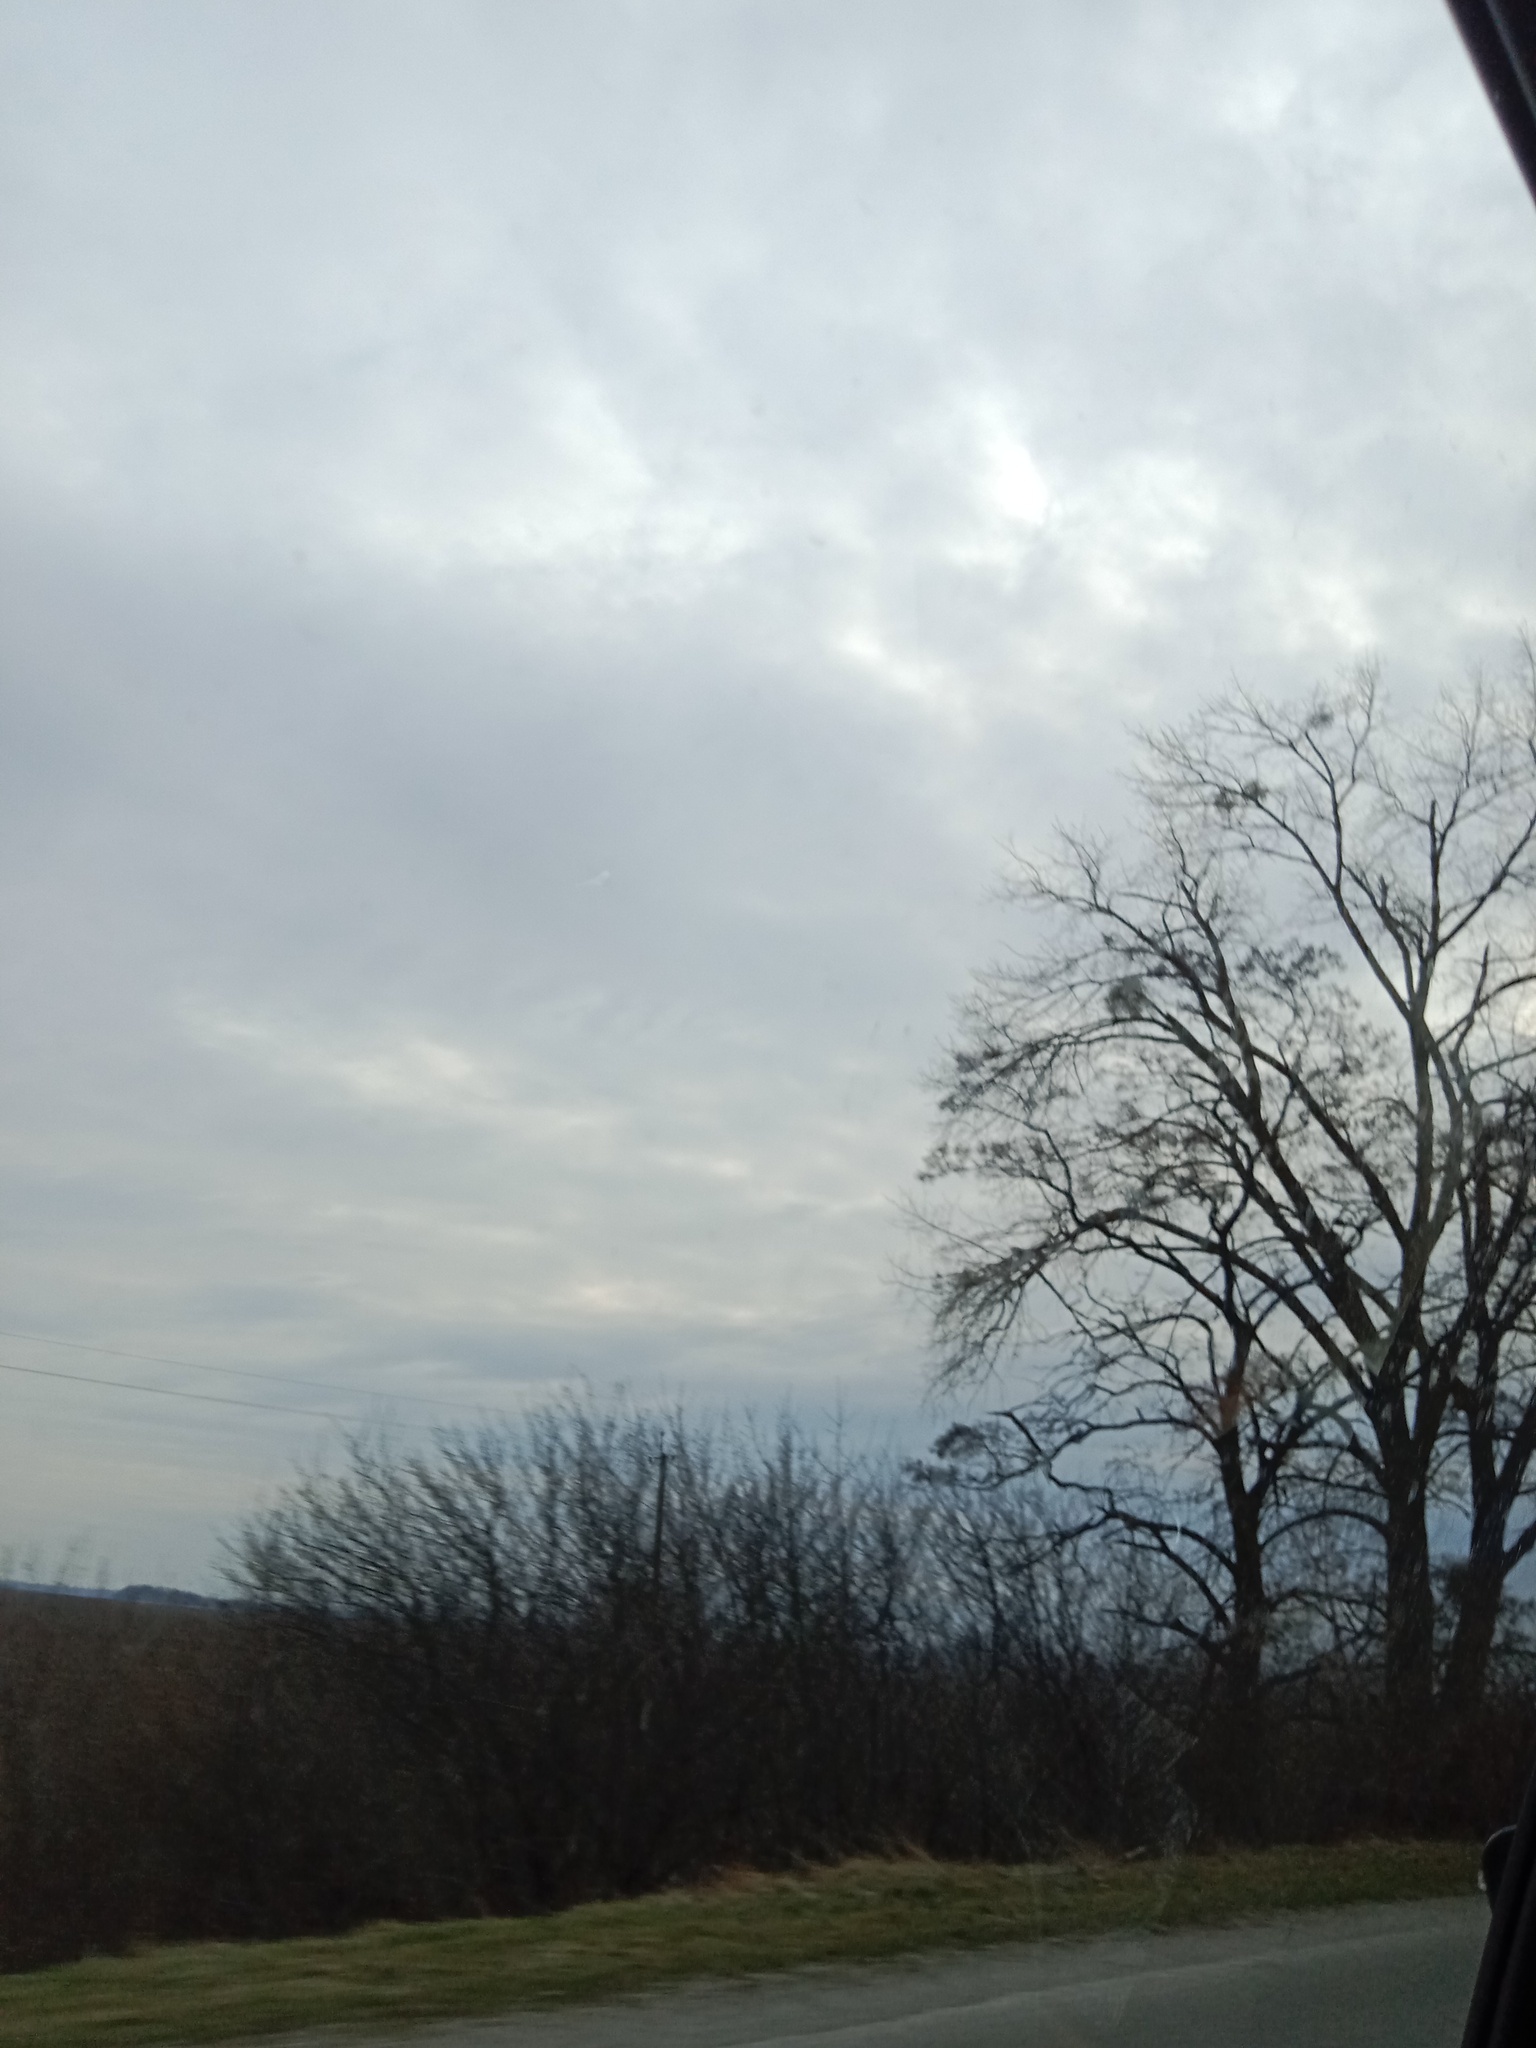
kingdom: Plantae
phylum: Tracheophyta
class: Magnoliopsida
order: Santalales
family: Viscaceae
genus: Viscum
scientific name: Viscum album
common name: Mistletoe
